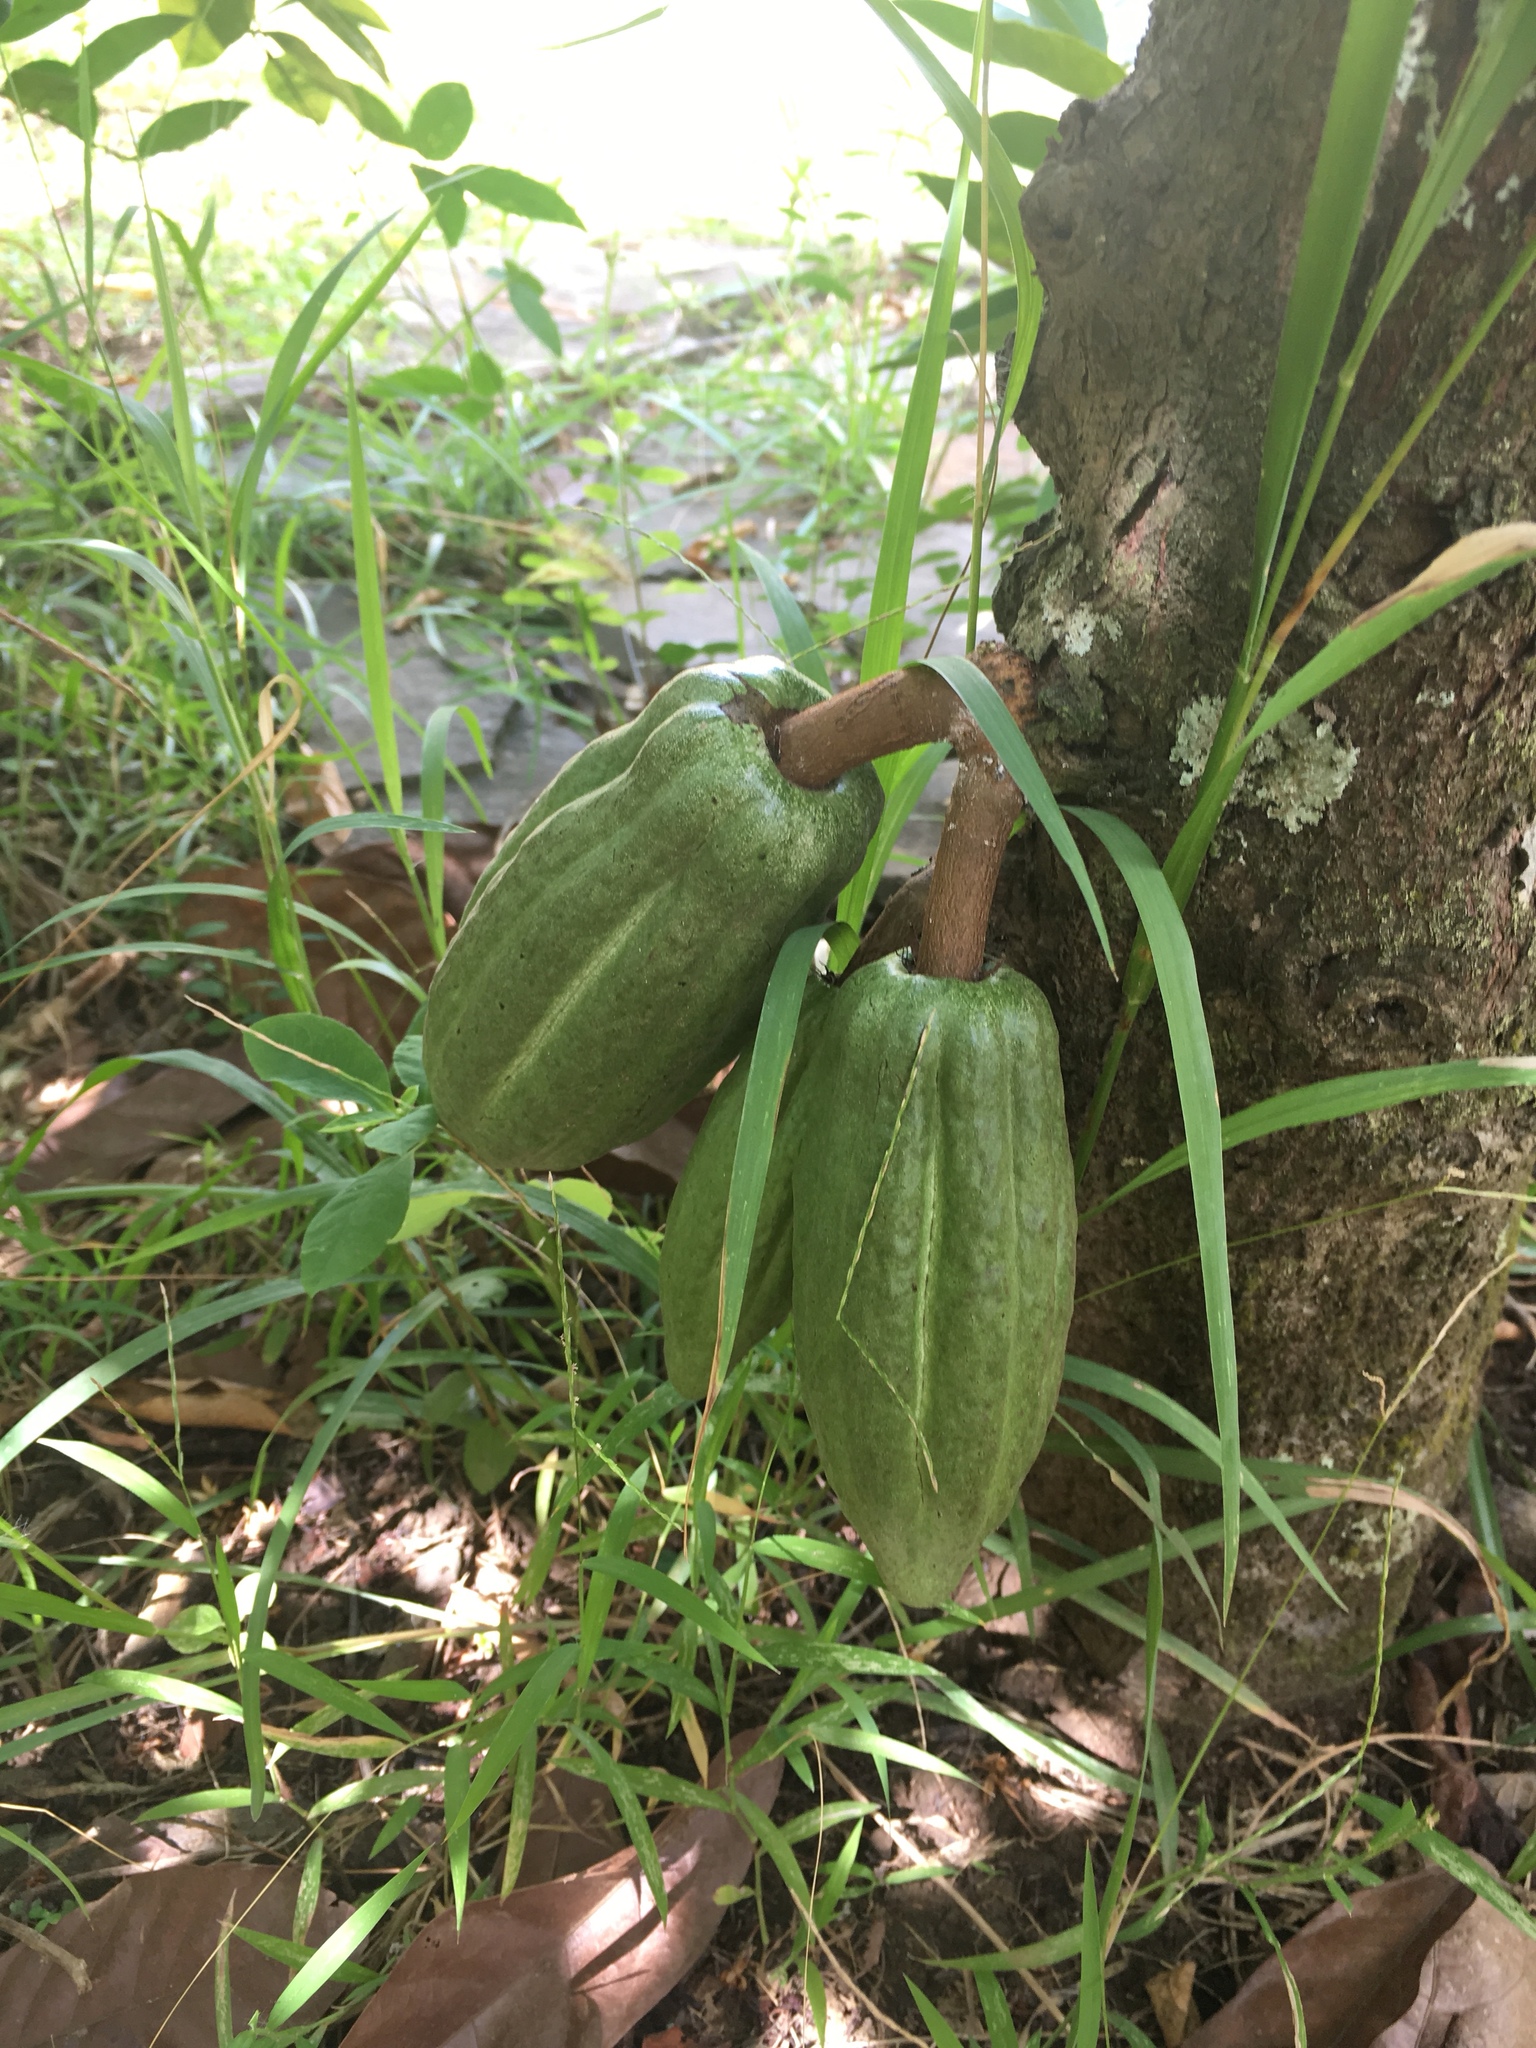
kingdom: Plantae
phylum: Tracheophyta
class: Magnoliopsida
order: Malvales
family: Malvaceae
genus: Theobroma
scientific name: Theobroma cacao
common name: Cocoa
